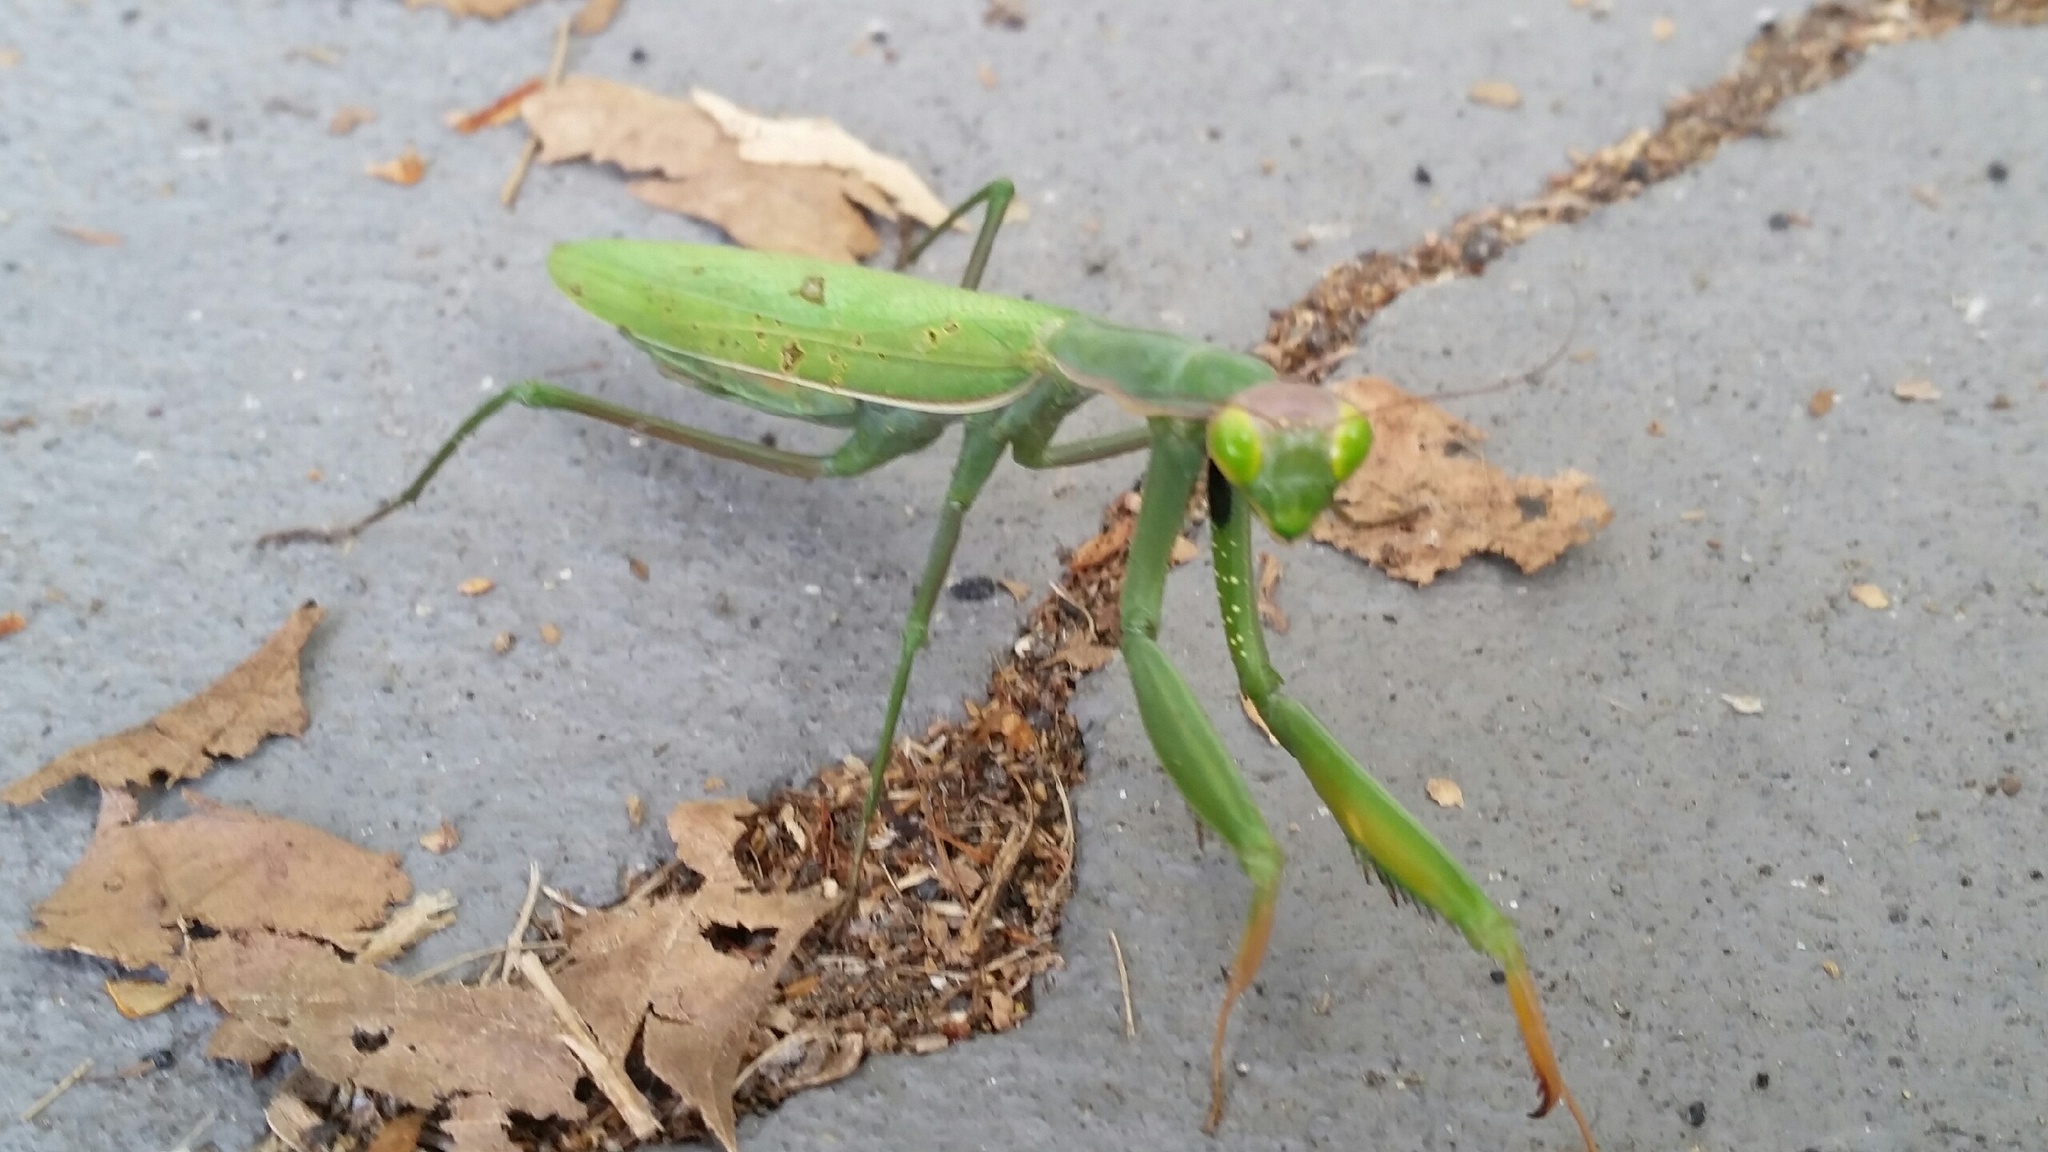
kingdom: Animalia
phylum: Arthropoda
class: Insecta
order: Mantodea
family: Mantidae
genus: Mantis
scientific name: Mantis religiosa
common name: Praying mantis
